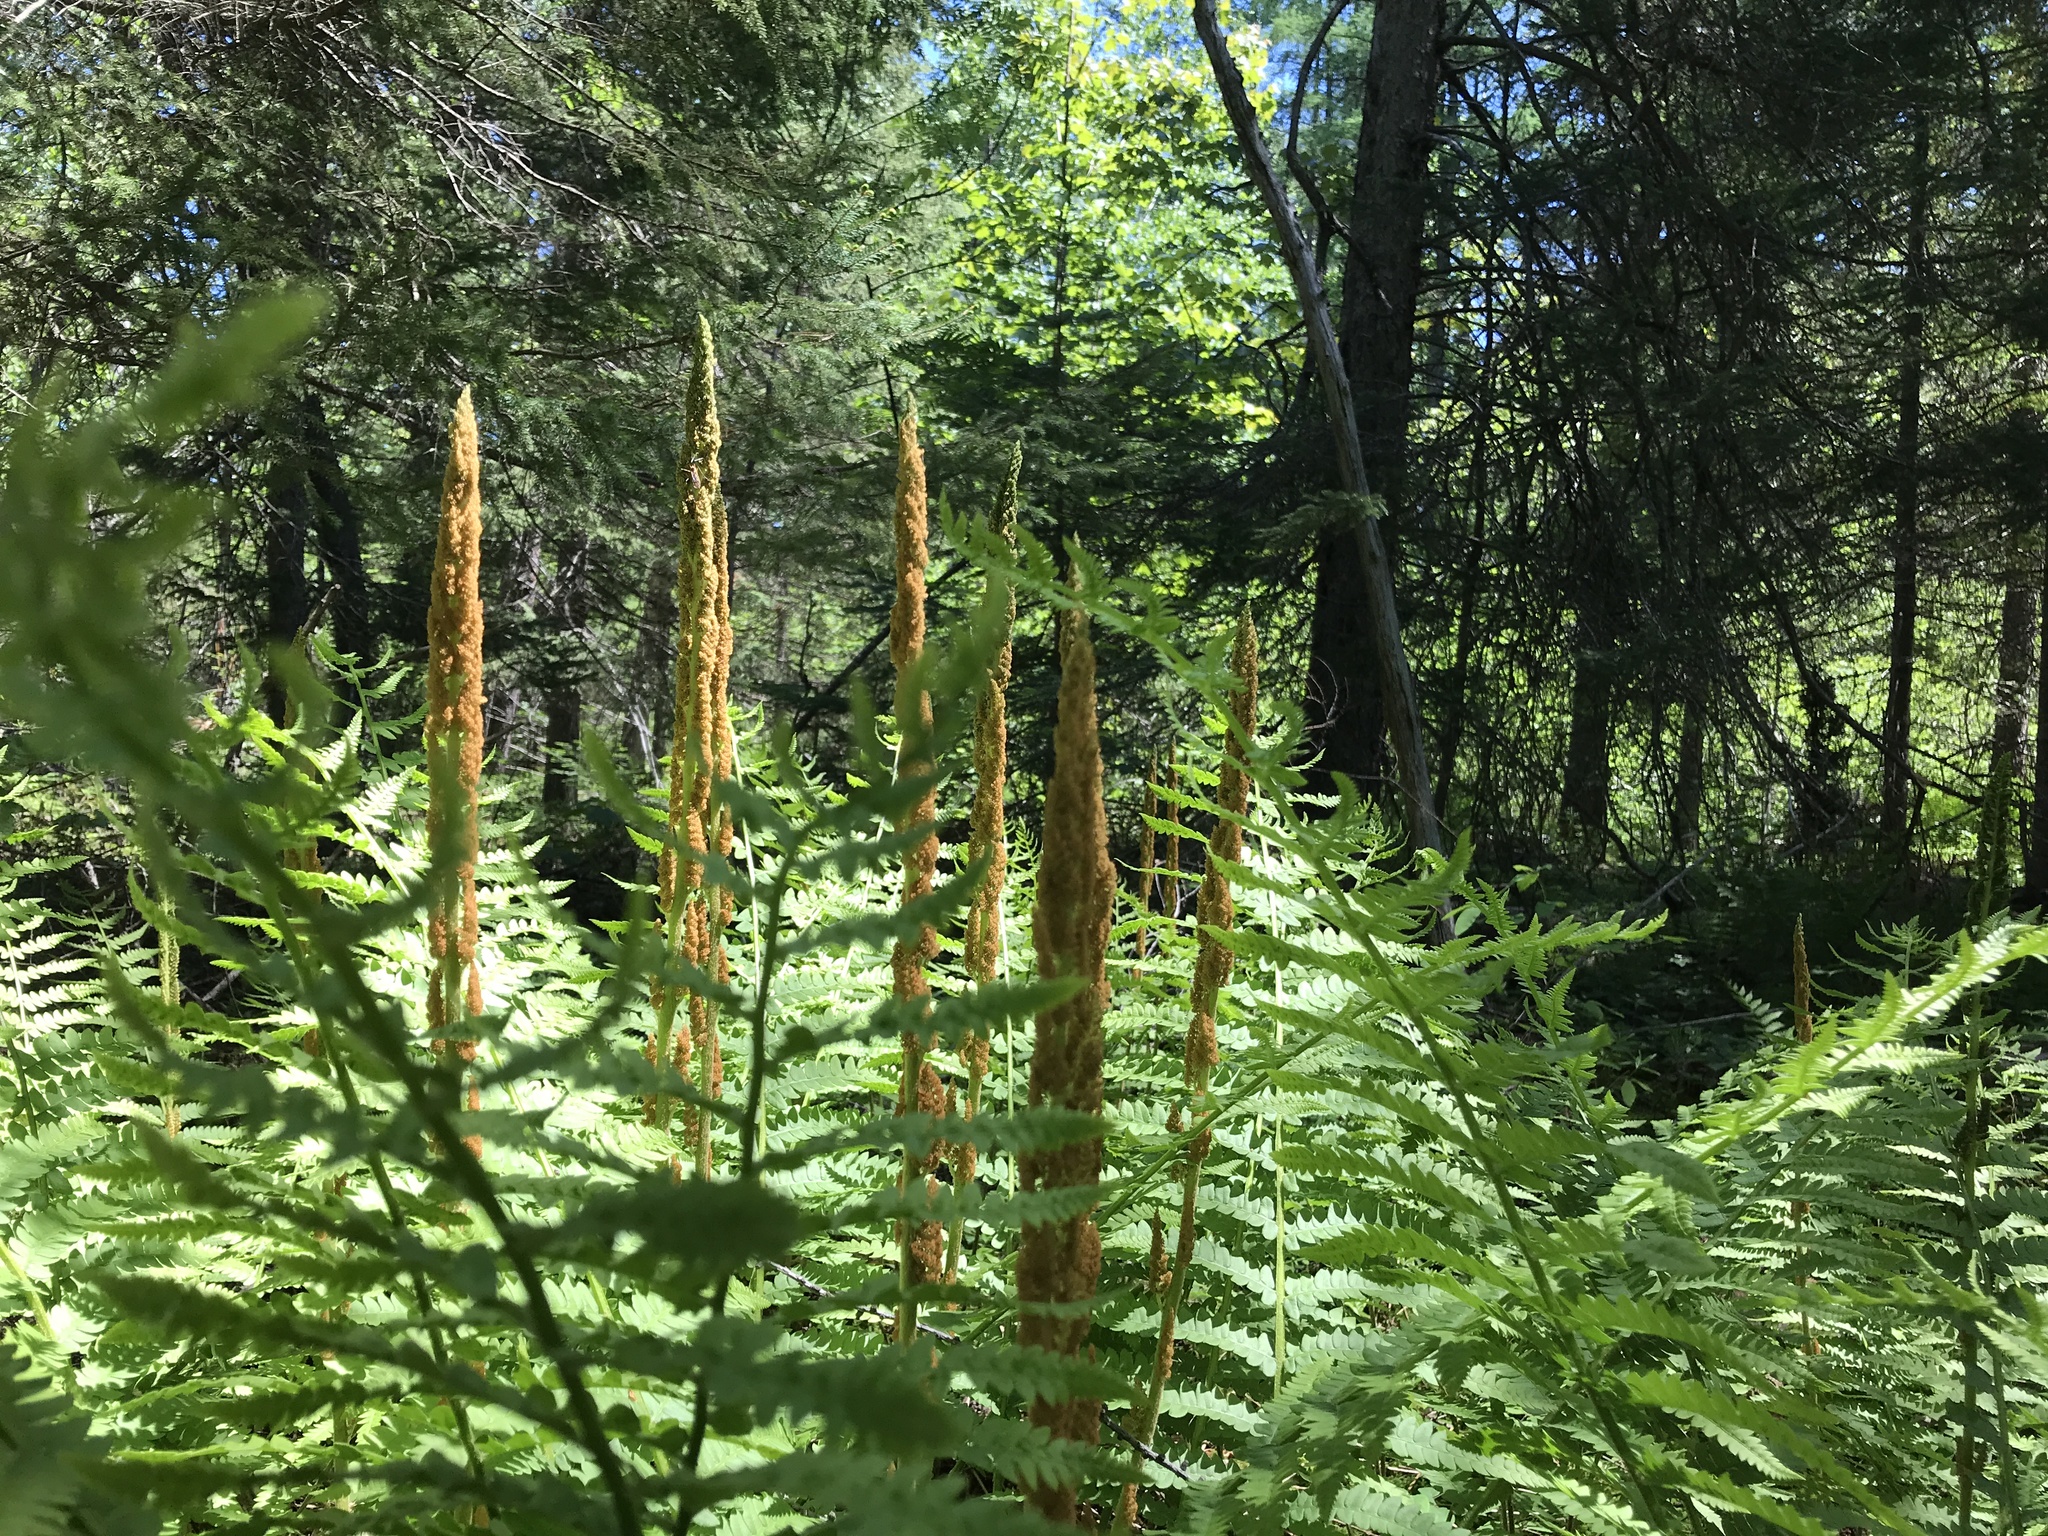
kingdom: Plantae
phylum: Tracheophyta
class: Polypodiopsida
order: Osmundales
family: Osmundaceae
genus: Osmundastrum
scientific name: Osmundastrum cinnamomeum
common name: Cinnamon fern
